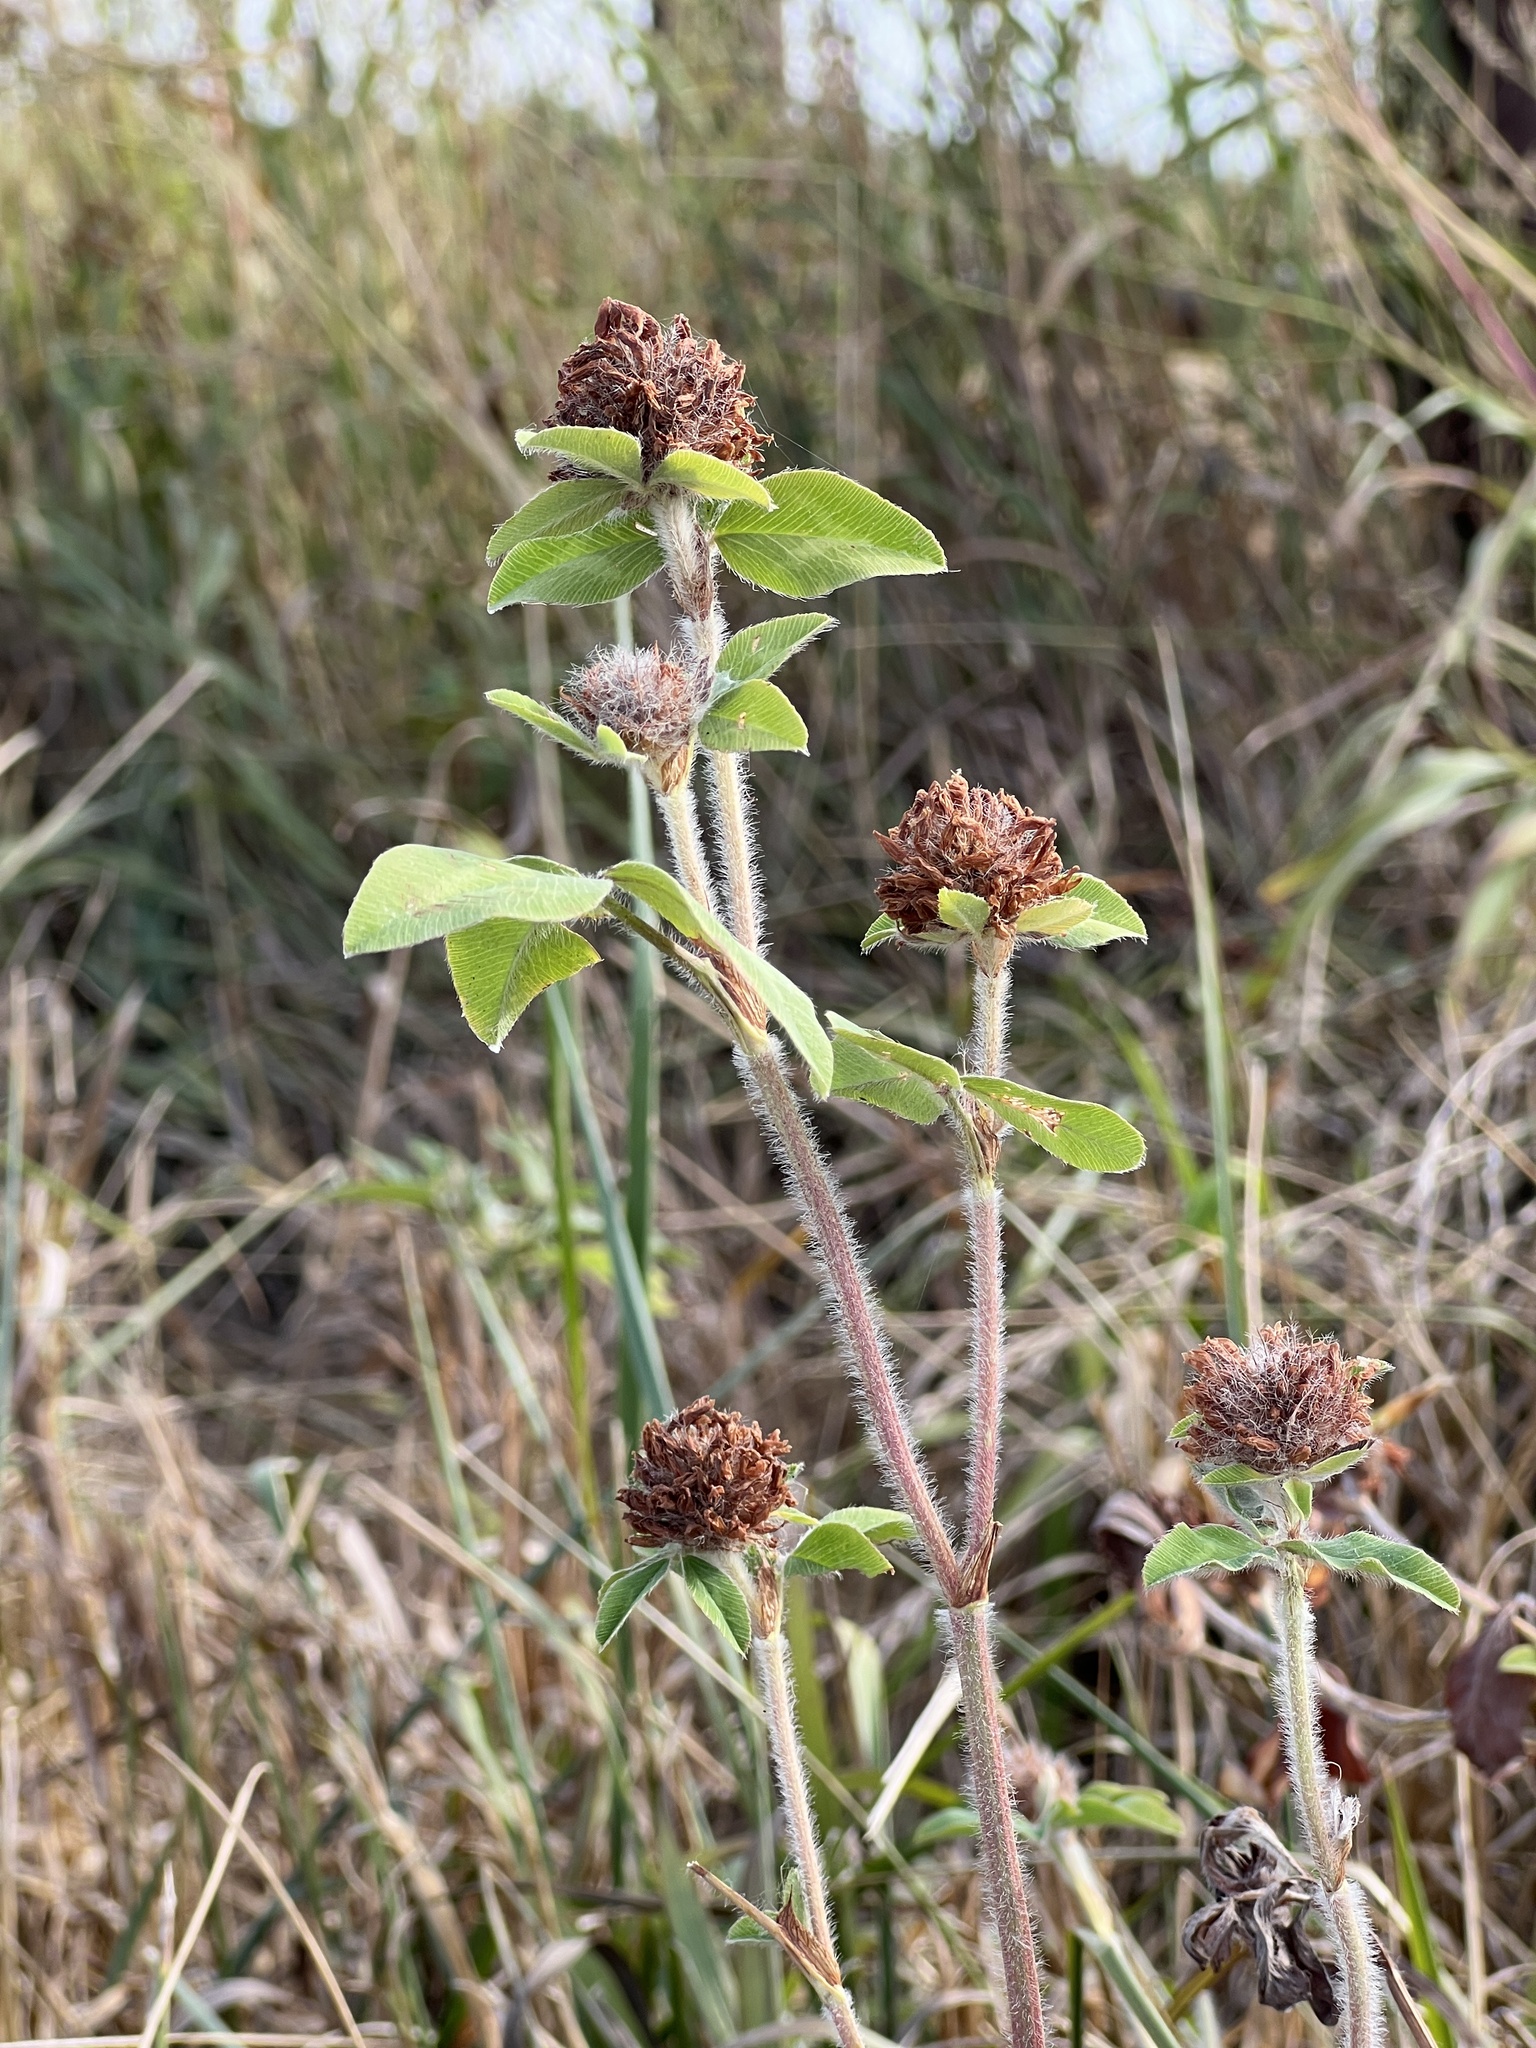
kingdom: Plantae
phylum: Tracheophyta
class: Magnoliopsida
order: Fabales
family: Fabaceae
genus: Trifolium
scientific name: Trifolium pratense
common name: Red clover
